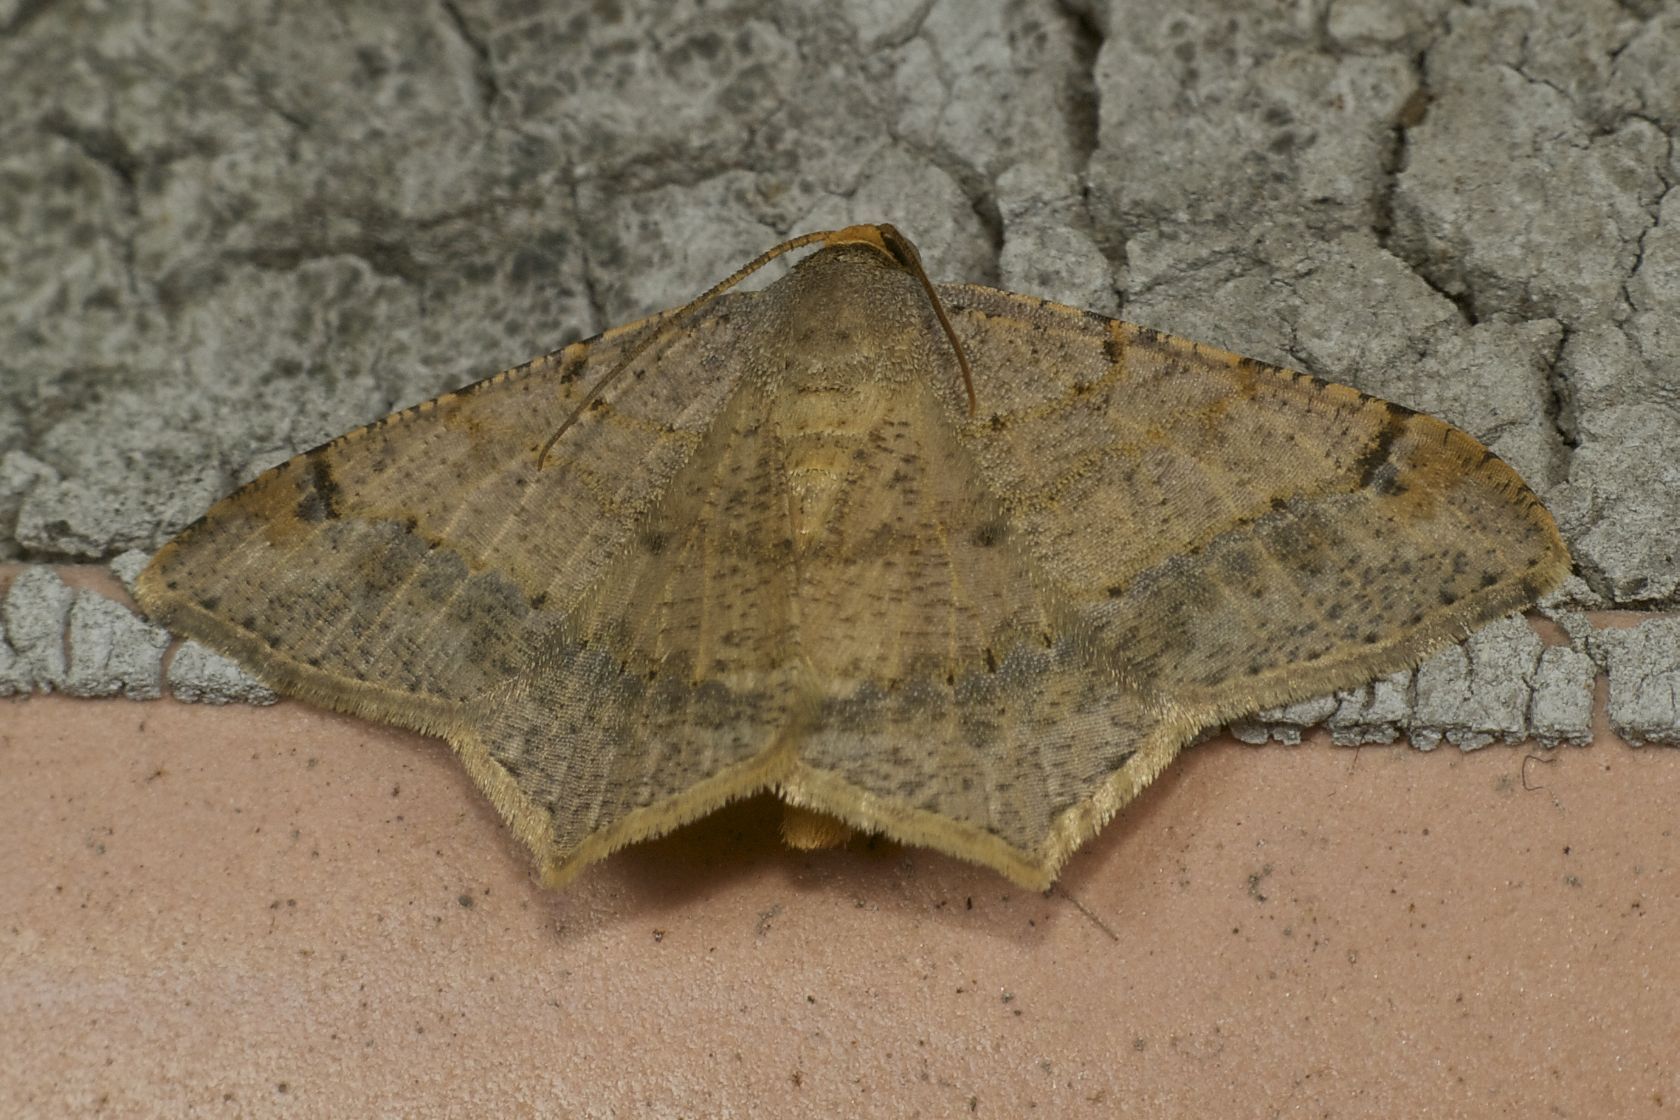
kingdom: Animalia
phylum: Arthropoda
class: Insecta
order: Lepidoptera
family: Geometridae
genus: Macaria
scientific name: Macaria abydata
